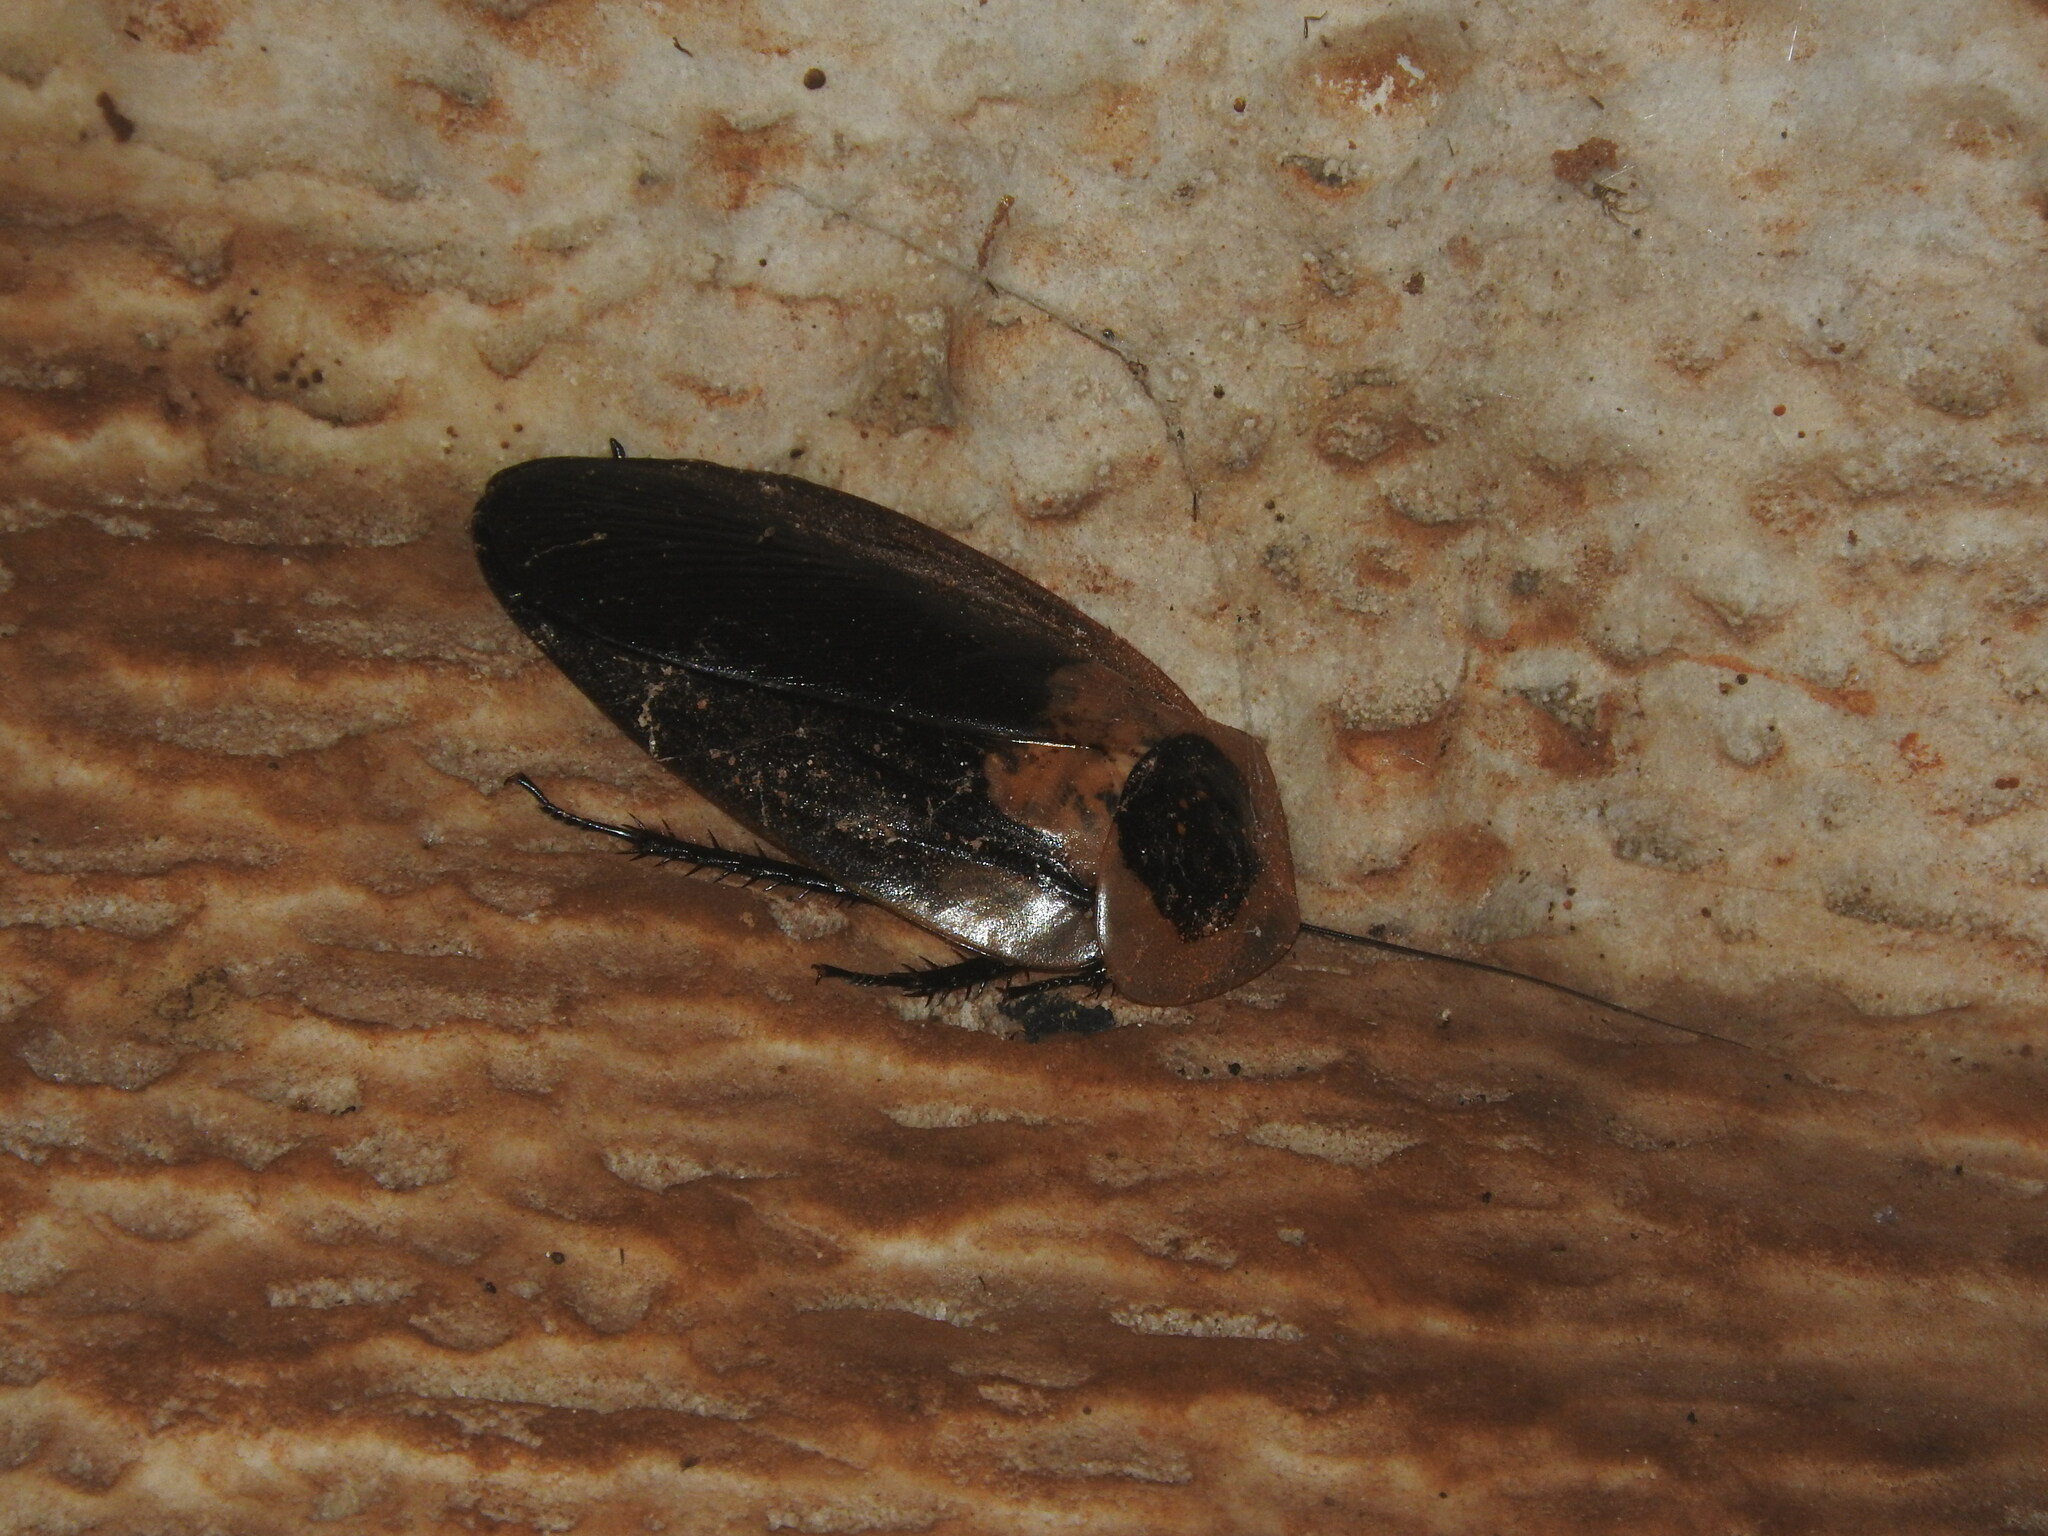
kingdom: Animalia
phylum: Arthropoda
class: Insecta
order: Blattodea
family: Blaberidae
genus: Blaberus
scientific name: Blaberus craniifer
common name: Death's head cockroach
